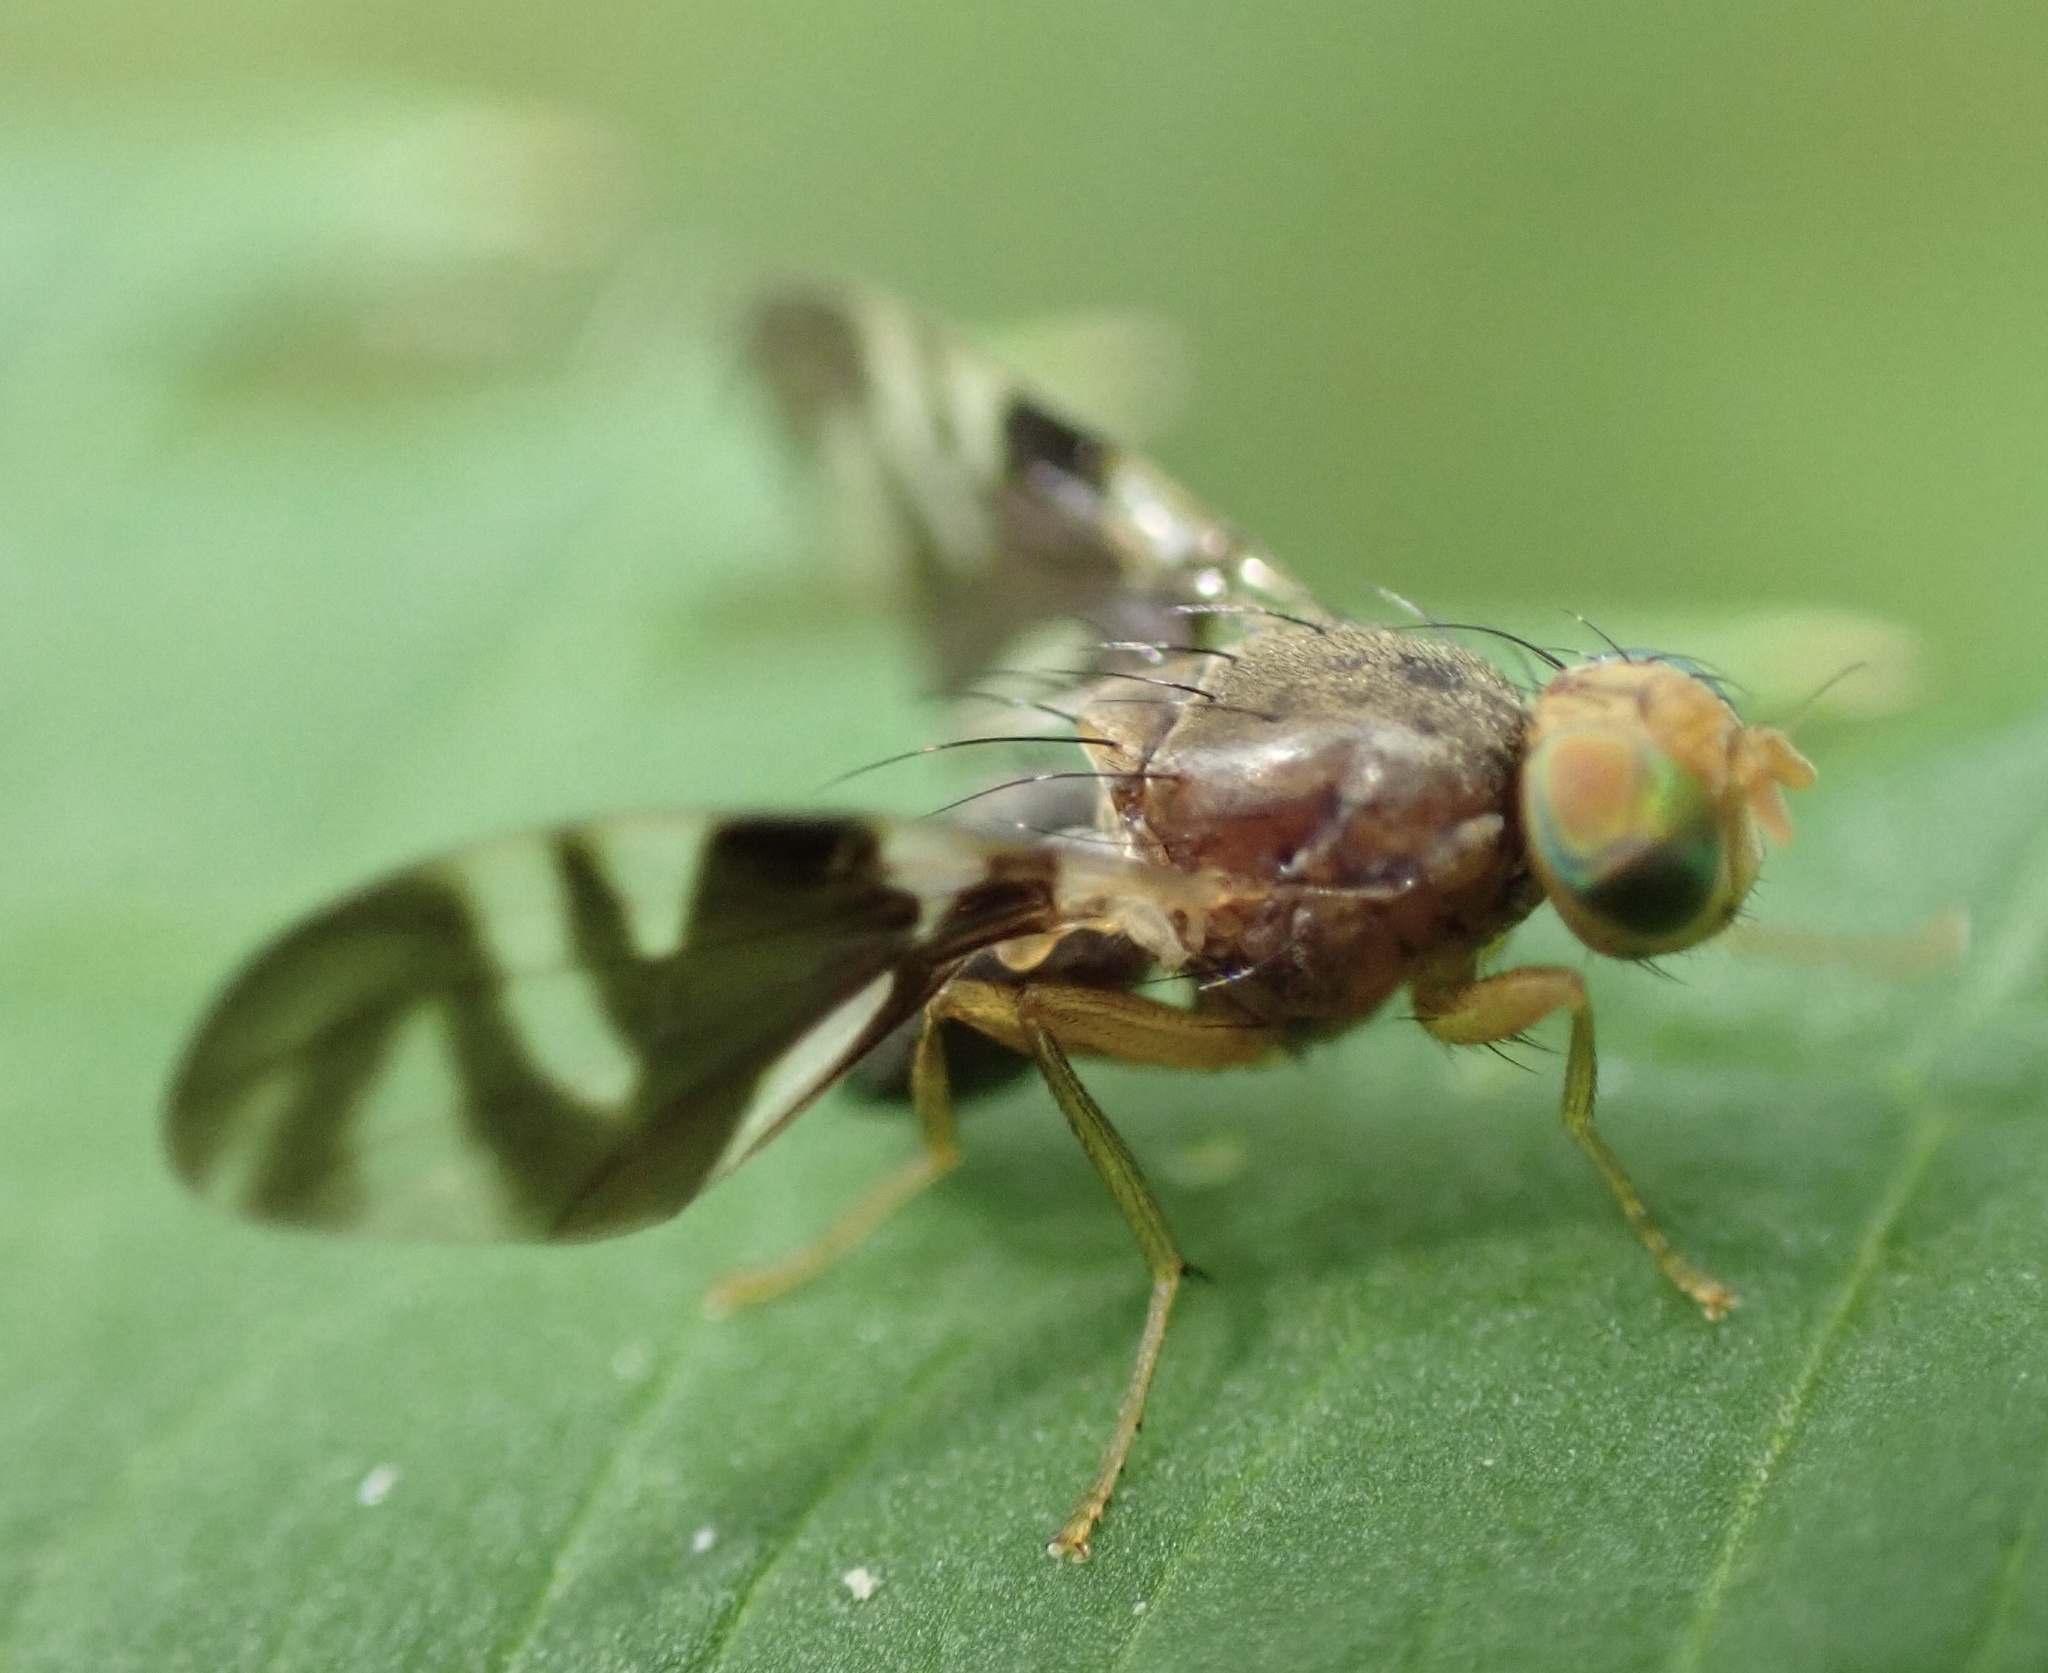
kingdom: Animalia
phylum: Arthropoda
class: Insecta
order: Diptera
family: Tephritidae
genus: Philophylla
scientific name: Philophylla caesio
